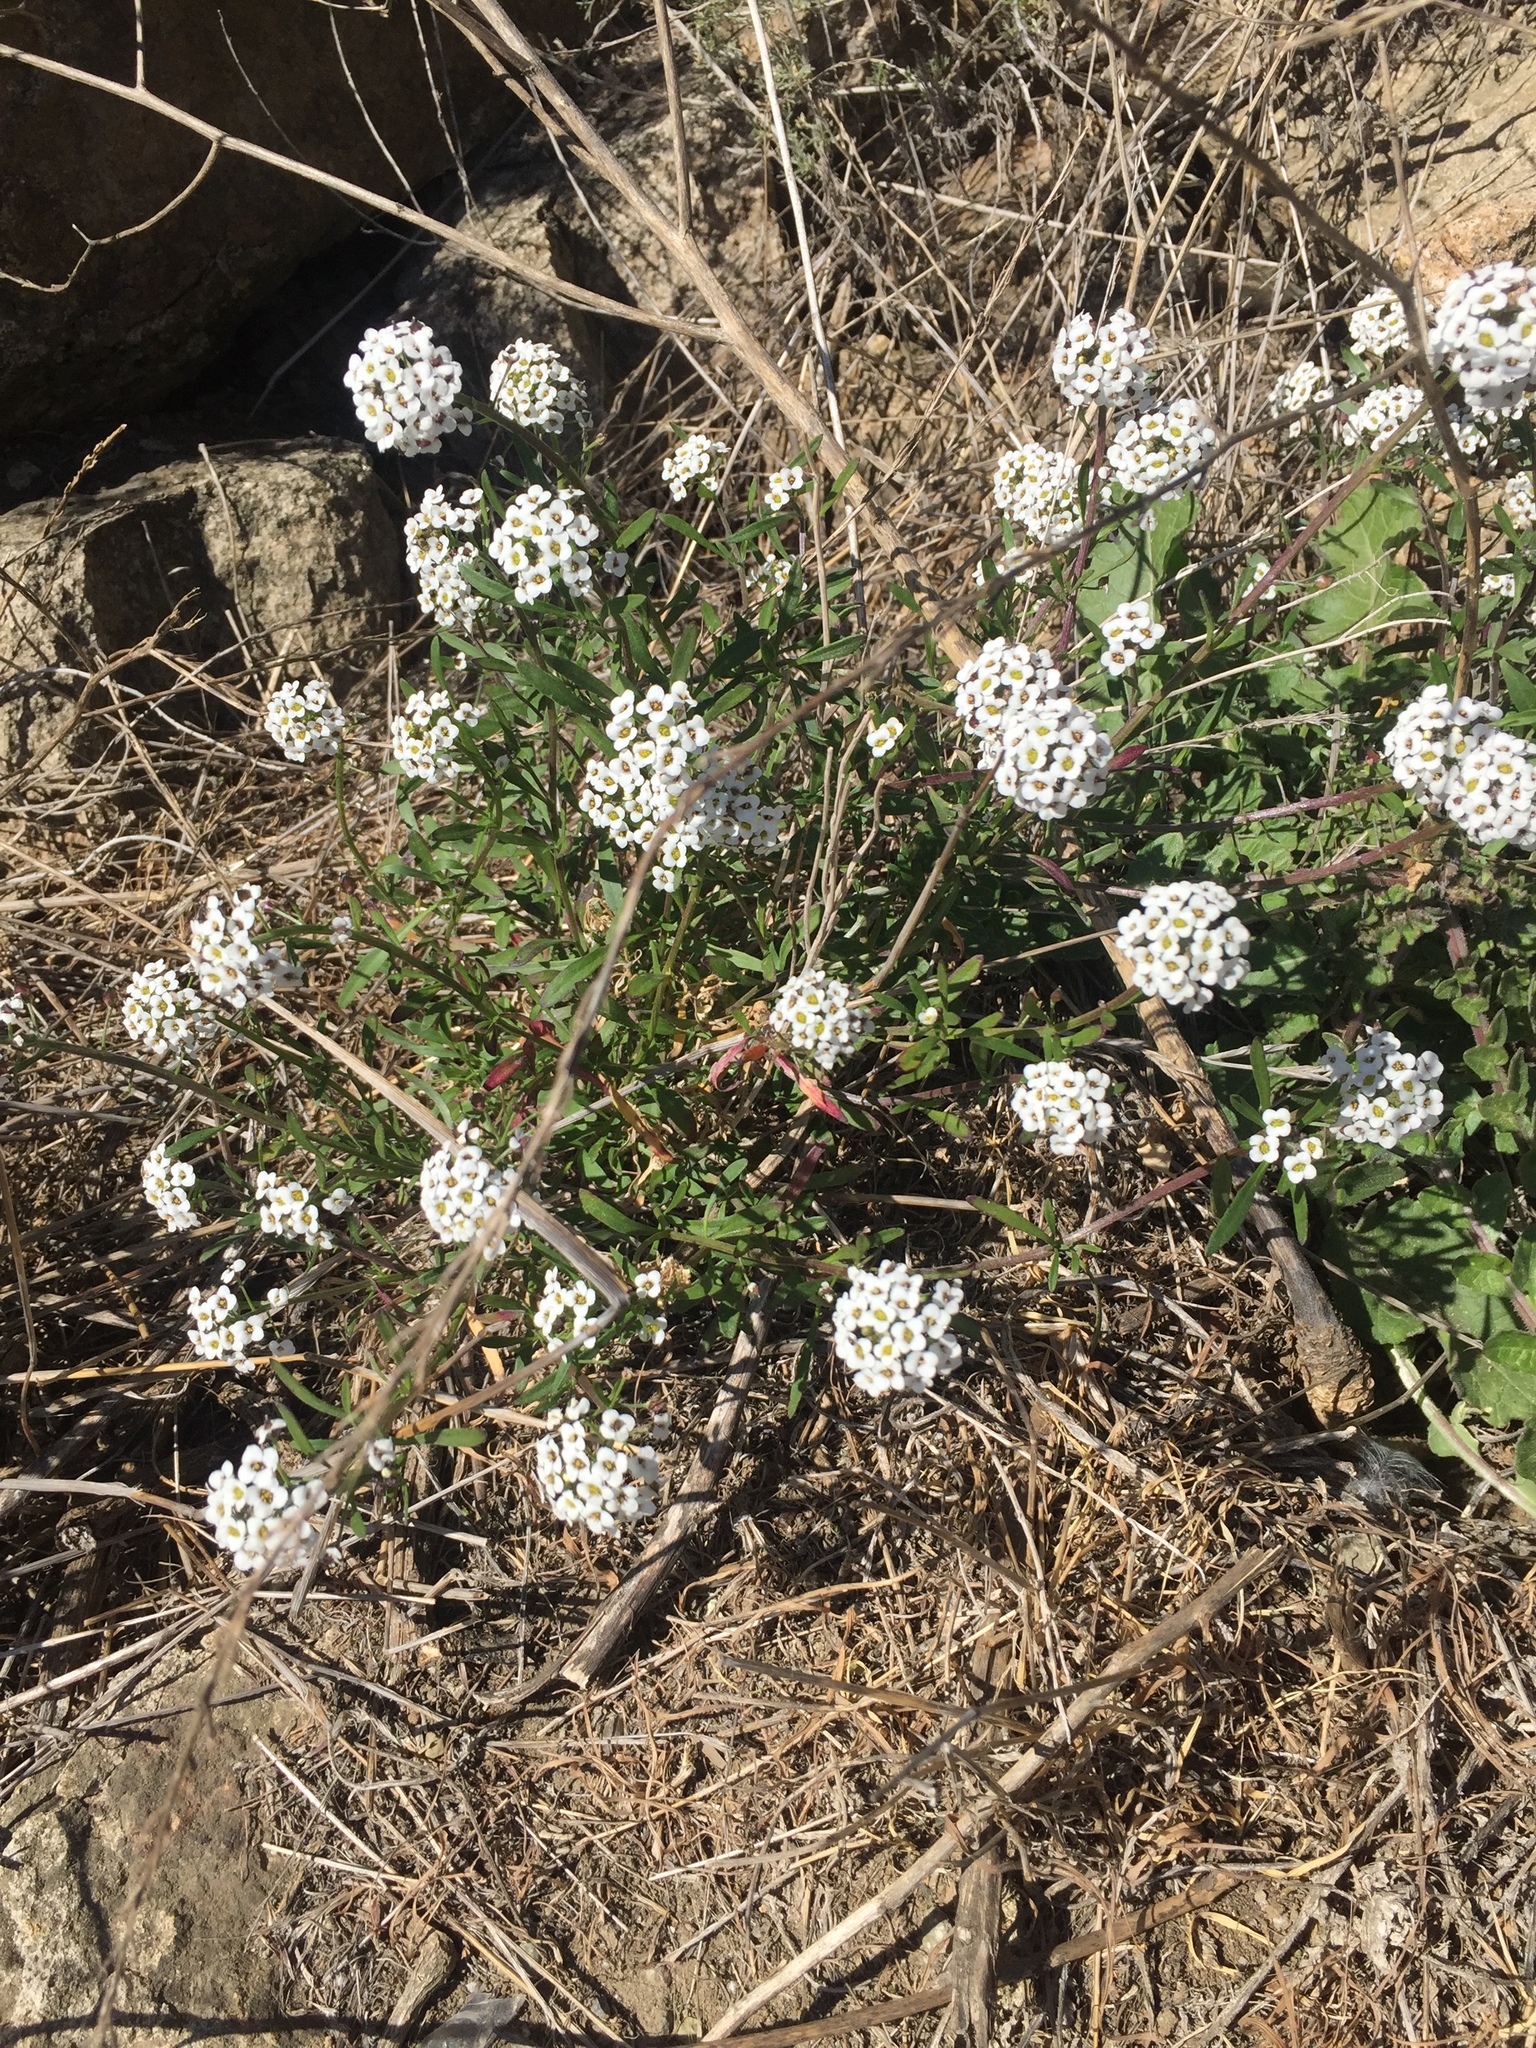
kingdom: Plantae
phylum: Tracheophyta
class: Magnoliopsida
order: Brassicales
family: Brassicaceae
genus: Lobularia
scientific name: Lobularia maritima
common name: Sweet alison
